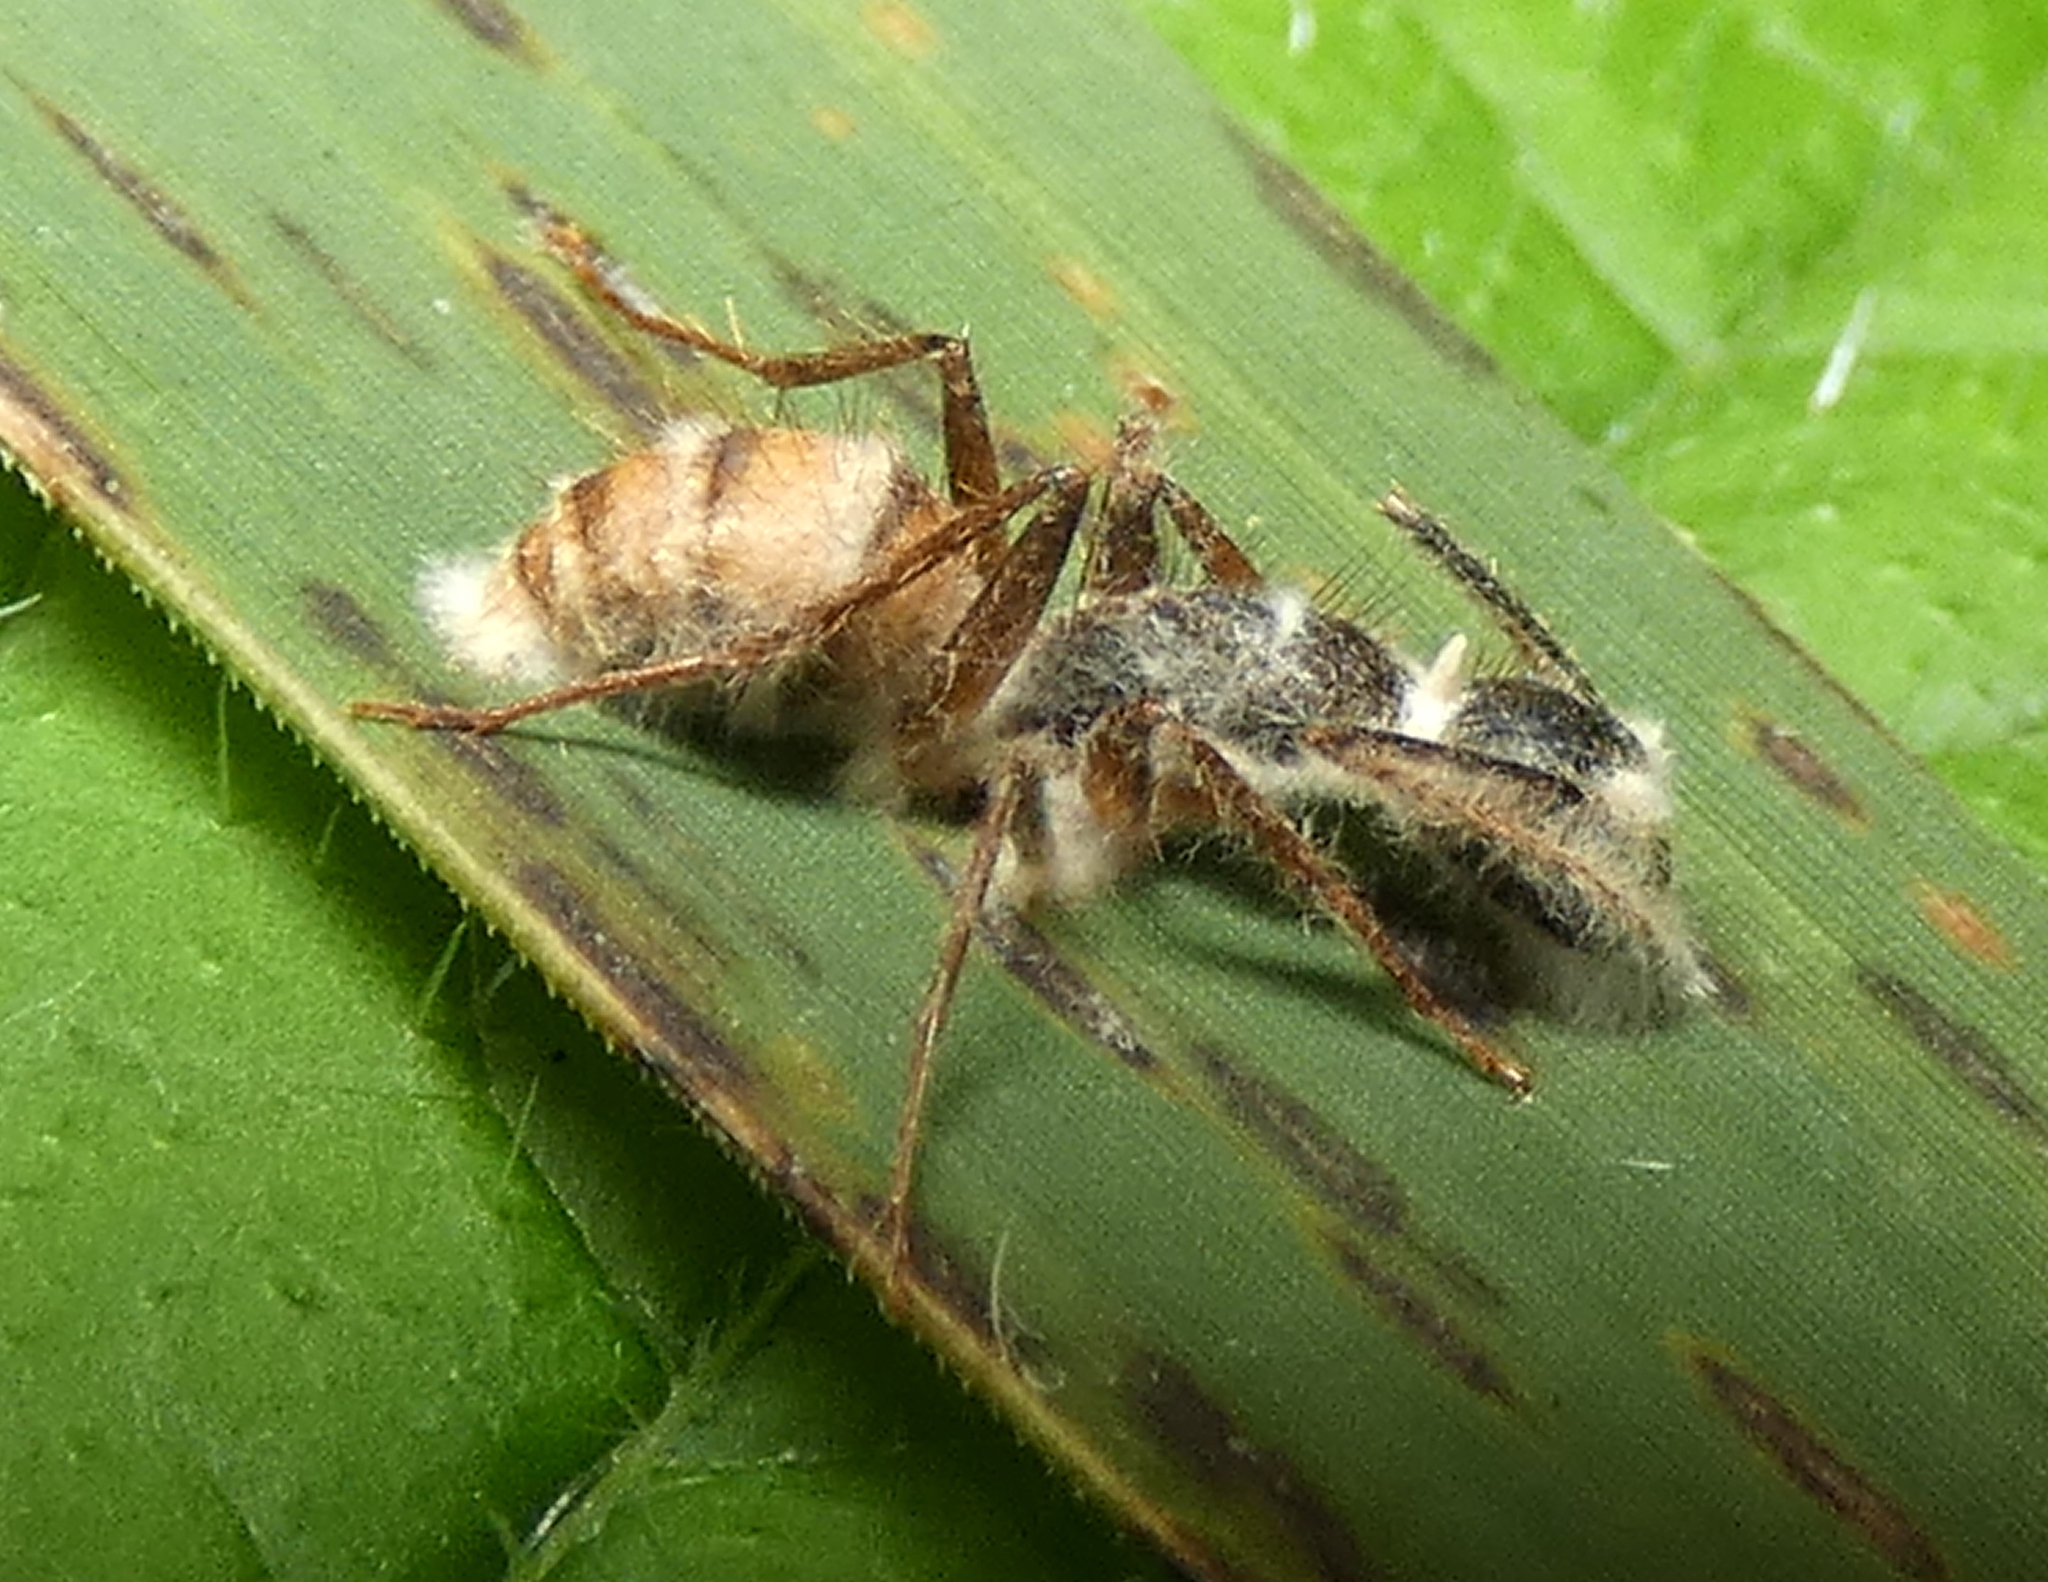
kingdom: Animalia
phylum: Arthropoda
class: Insecta
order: Hymenoptera
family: Formicidae
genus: Camponotus
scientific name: Camponotus atriceps
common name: Florida carpenter ant
